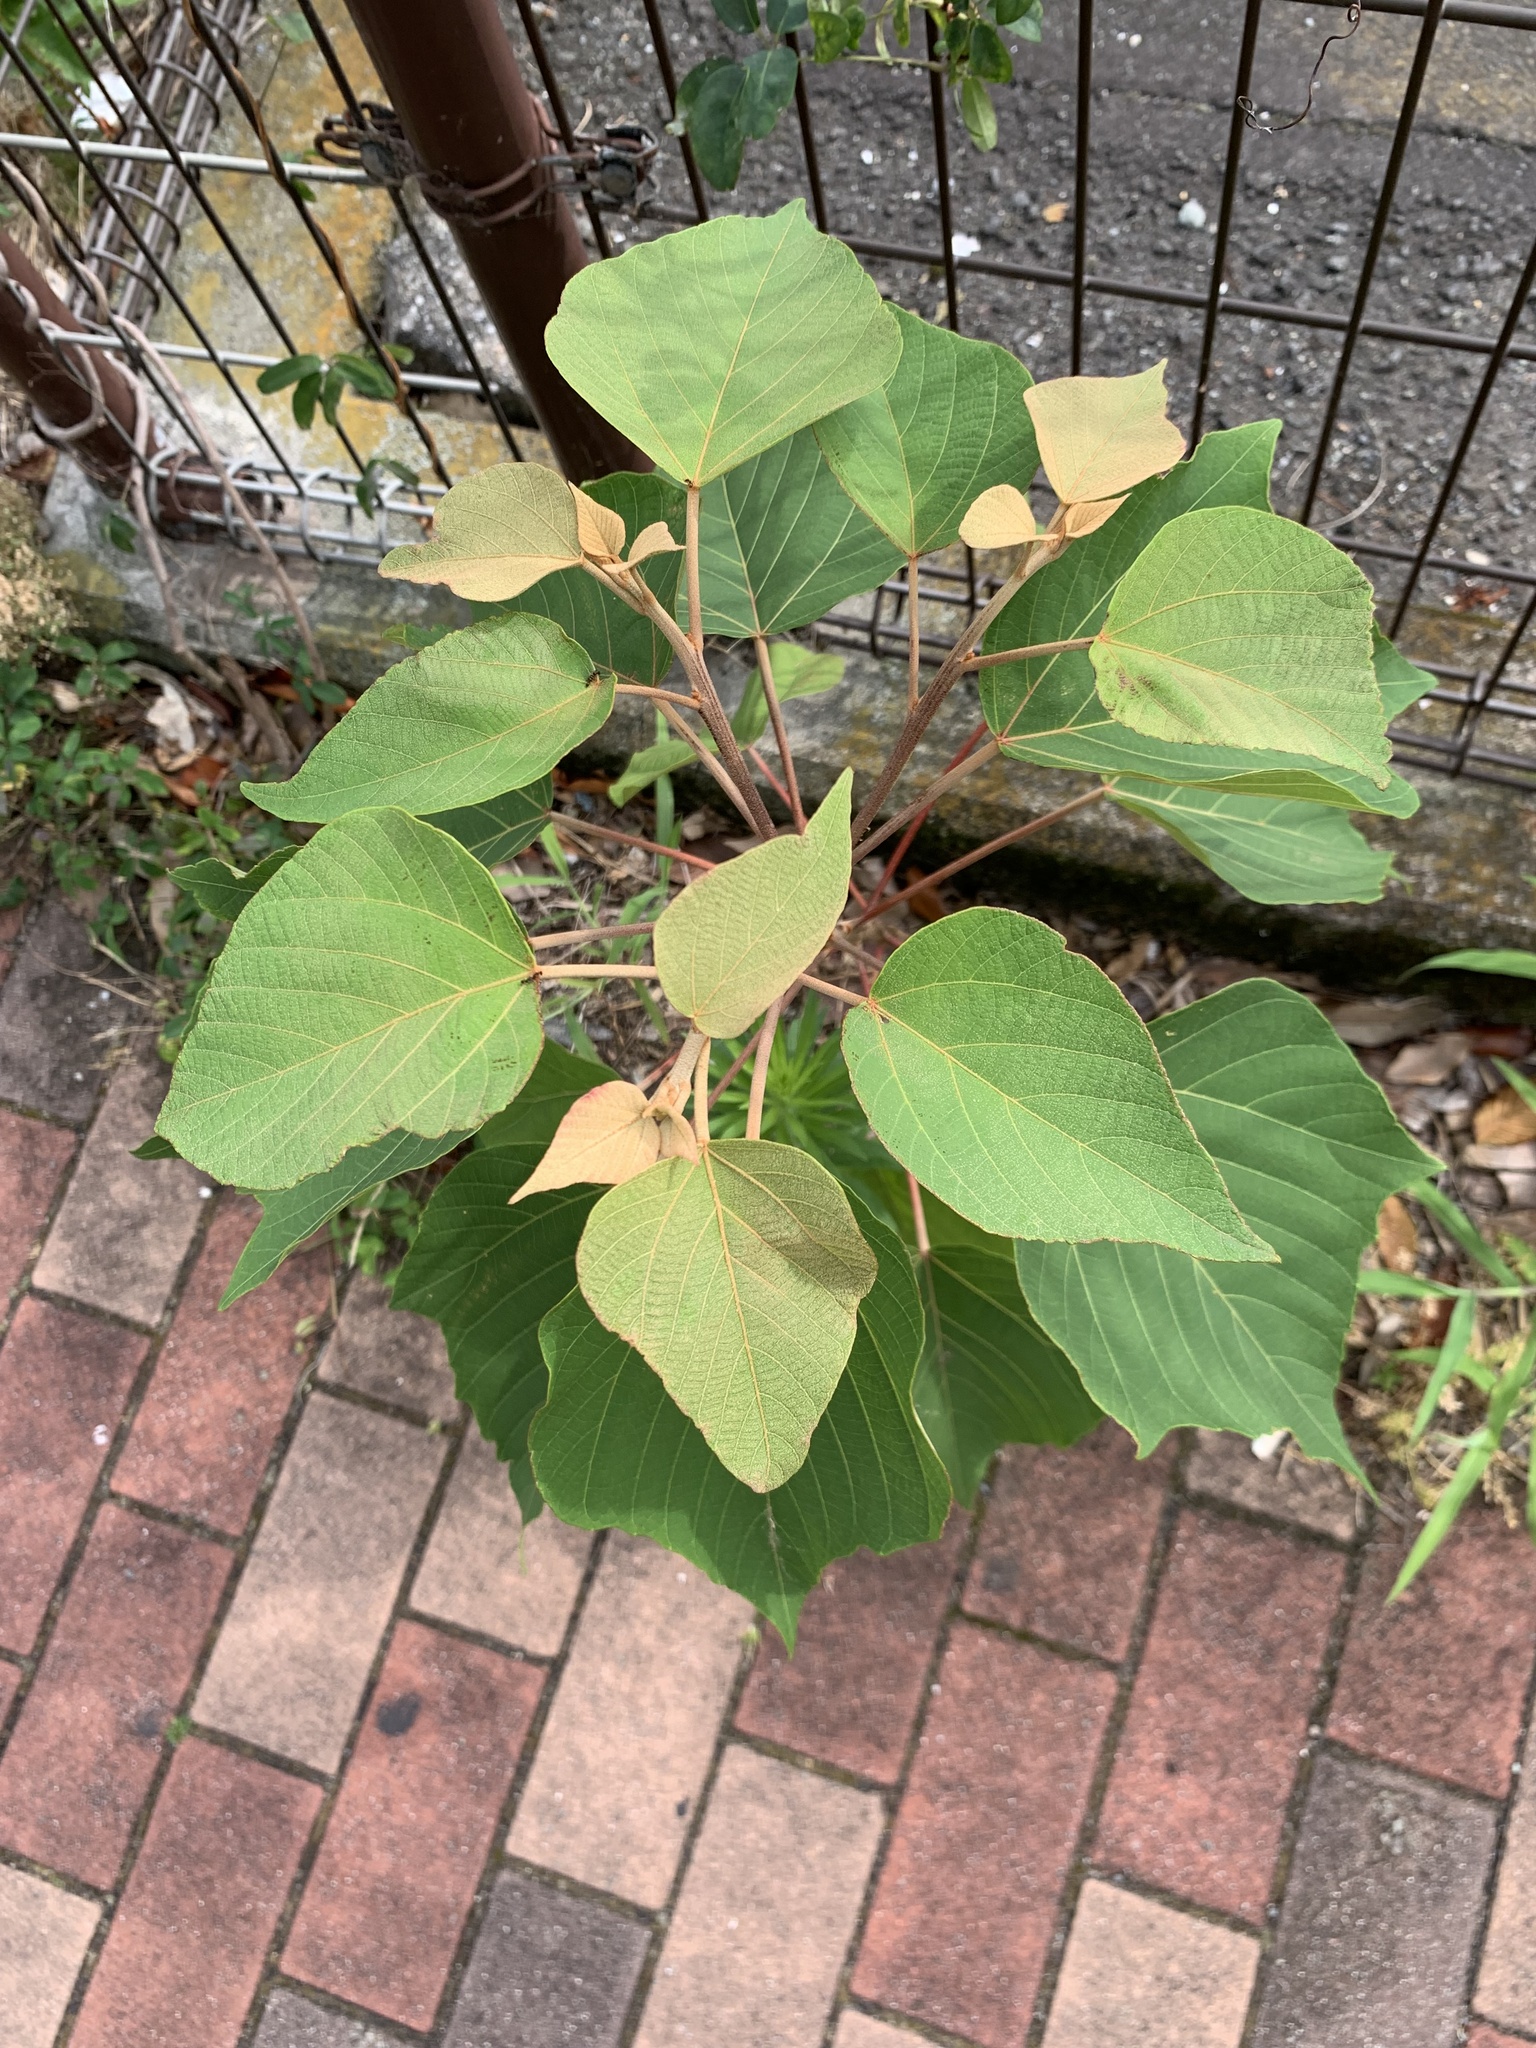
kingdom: Plantae
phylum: Tracheophyta
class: Magnoliopsida
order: Malpighiales
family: Euphorbiaceae
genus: Mallotus
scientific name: Mallotus japonicus
